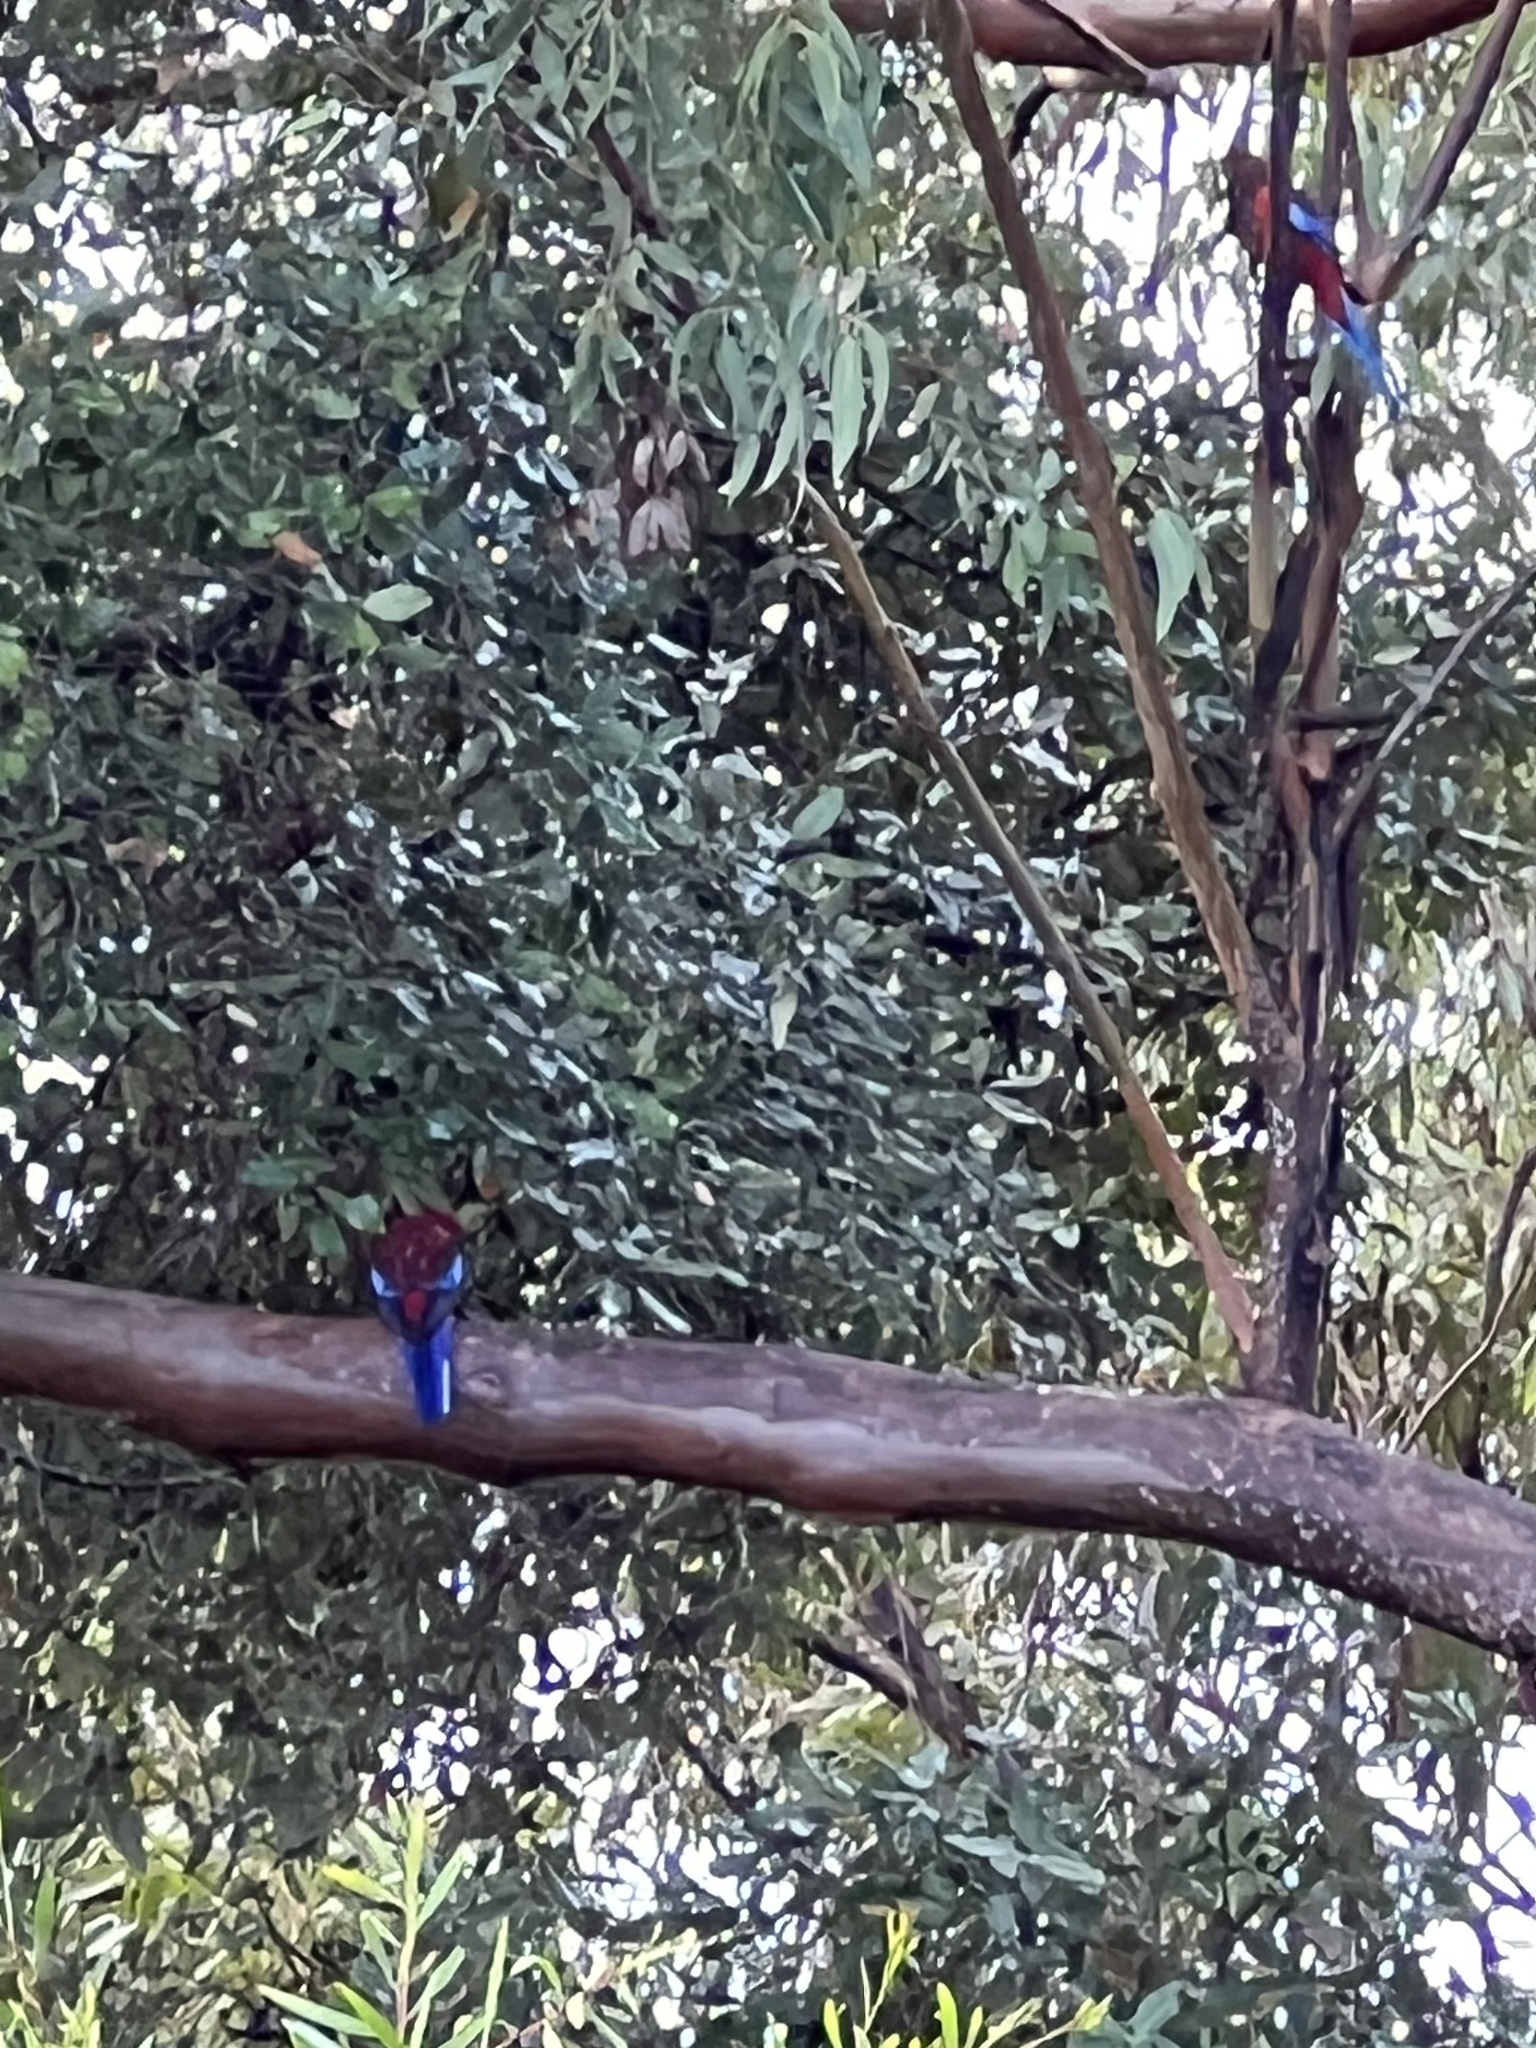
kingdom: Animalia
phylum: Chordata
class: Aves
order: Psittaciformes
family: Psittacidae
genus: Platycercus
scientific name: Platycercus elegans
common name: Crimson rosella
